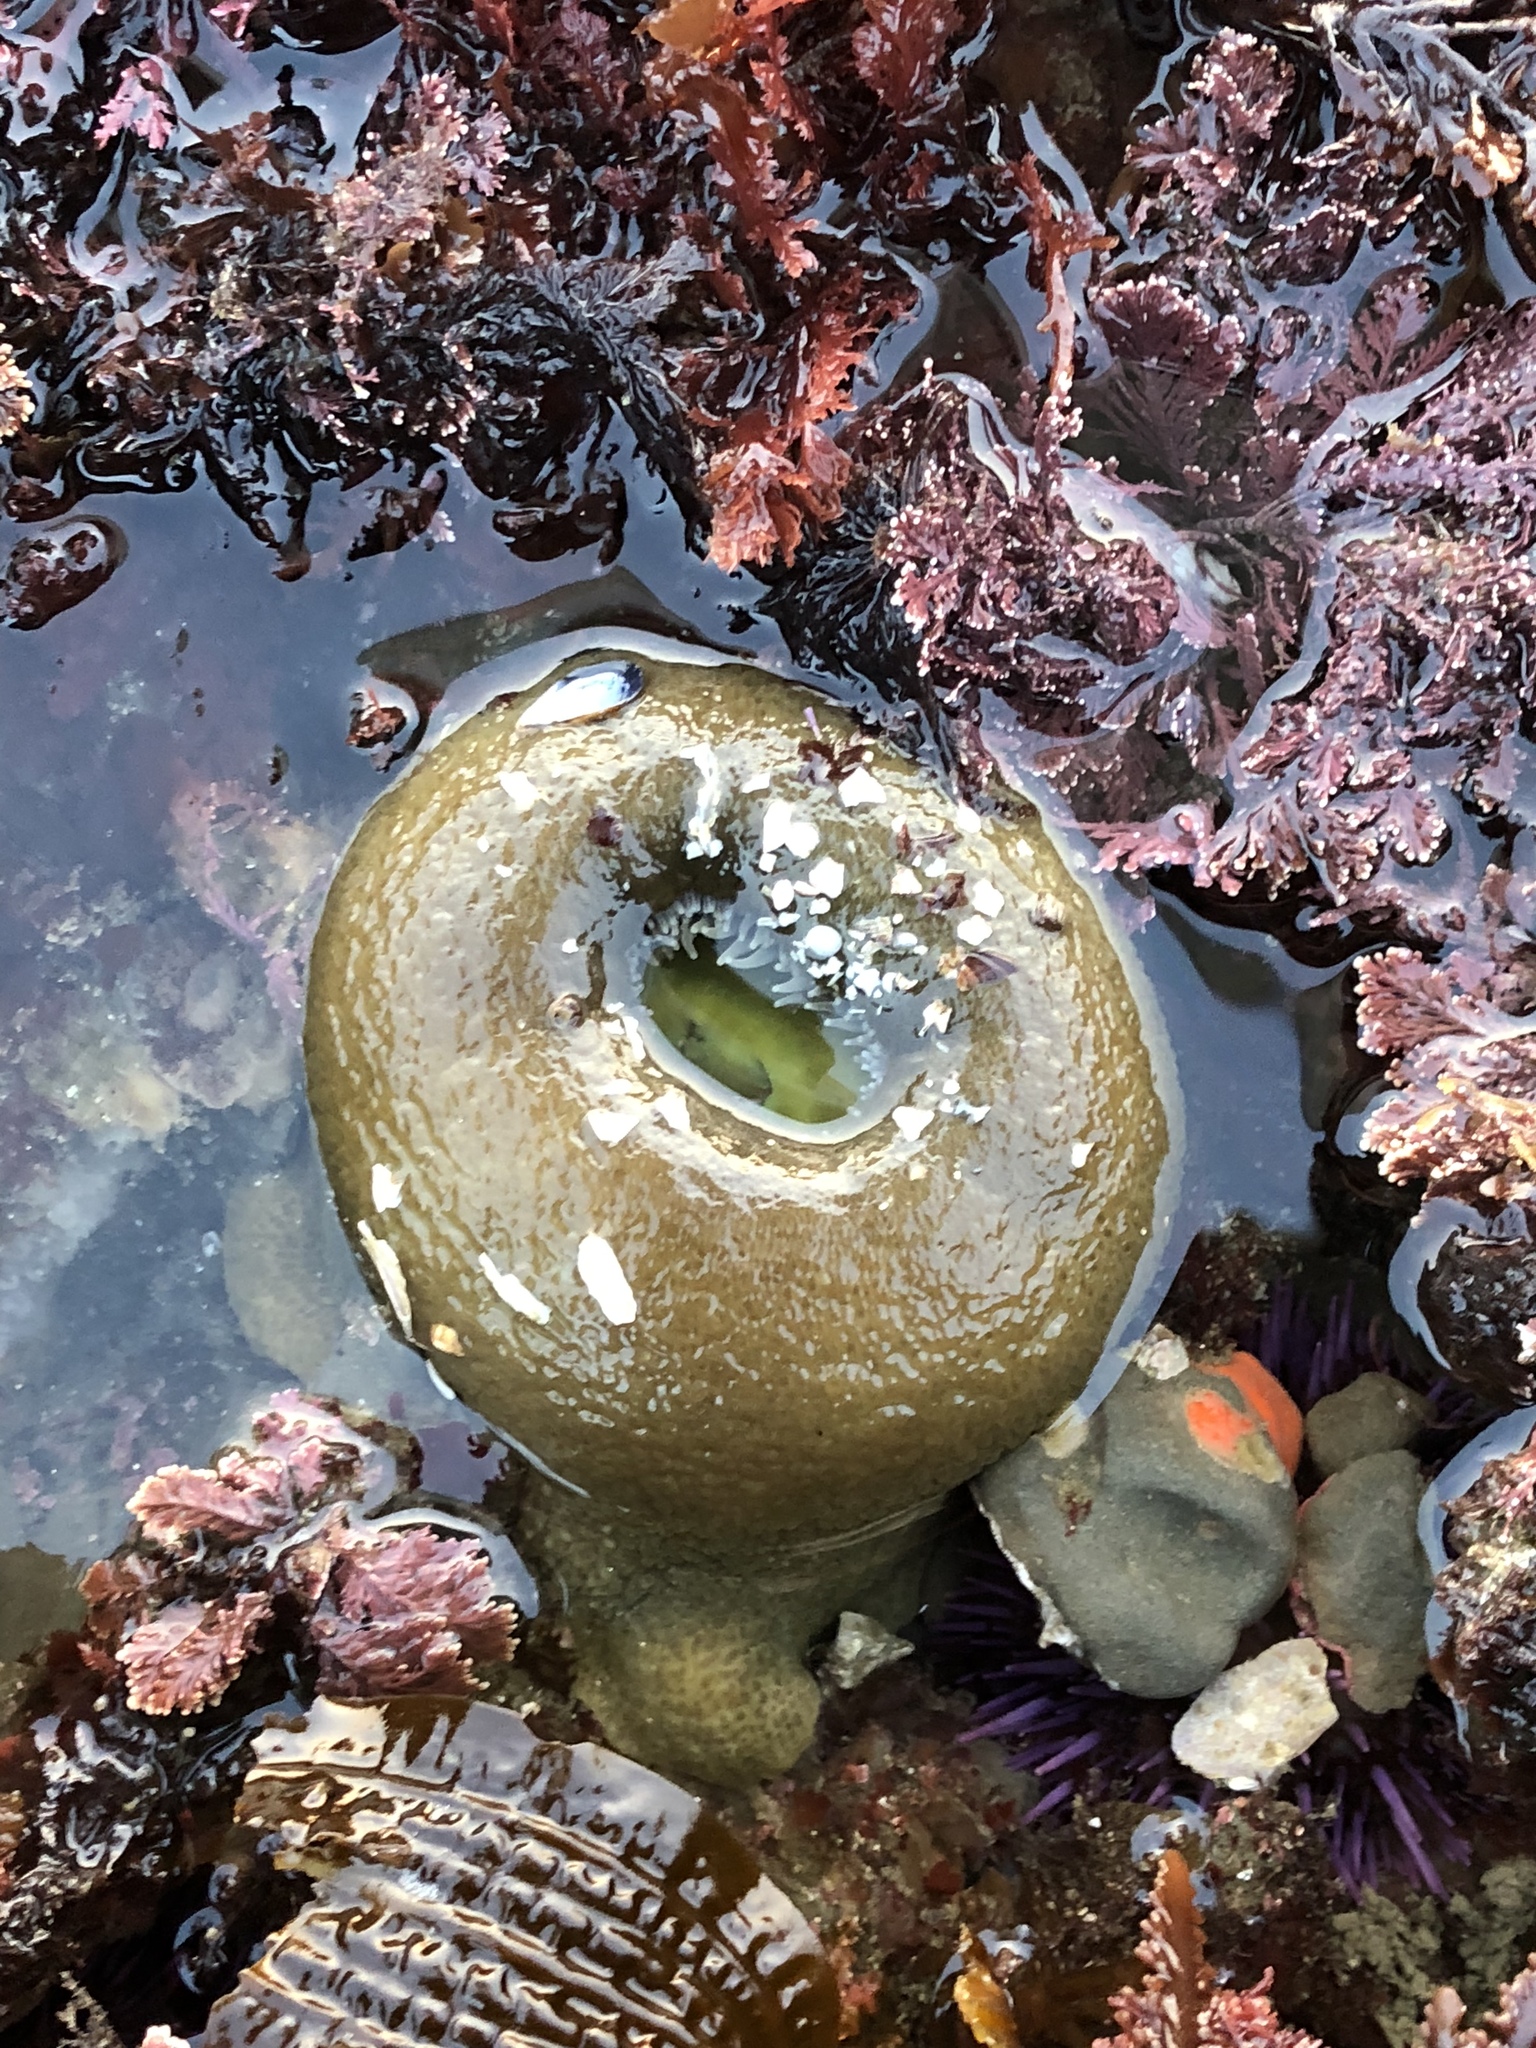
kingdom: Animalia
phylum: Cnidaria
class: Anthozoa
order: Actiniaria
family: Actiniidae
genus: Anthopleura
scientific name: Anthopleura xanthogrammica
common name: Giant green anemone
